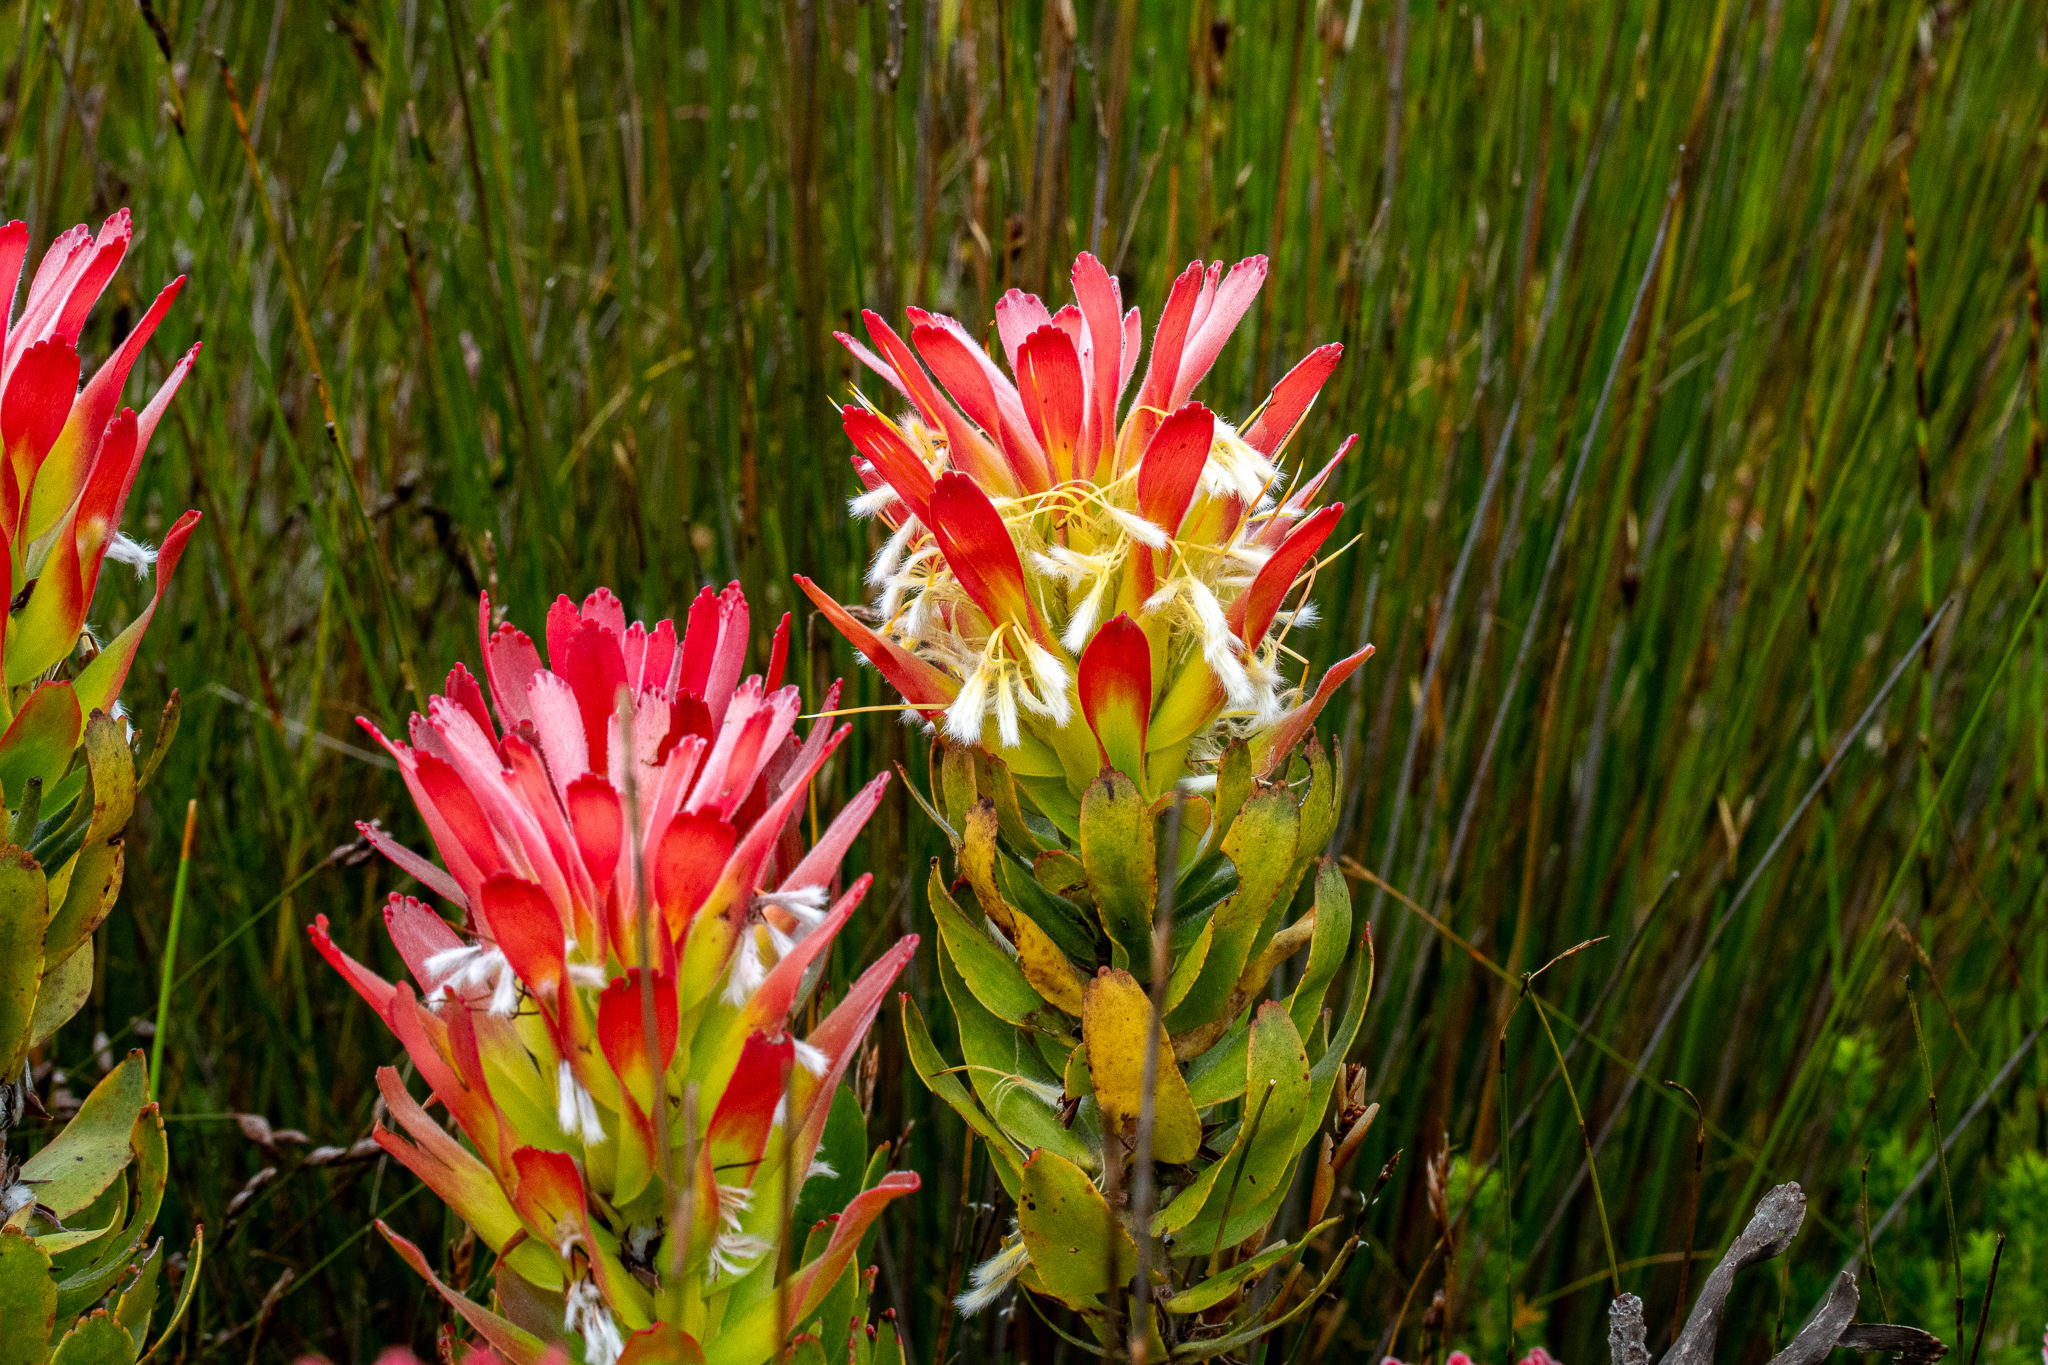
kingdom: Plantae
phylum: Tracheophyta
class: Magnoliopsida
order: Proteales
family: Proteaceae
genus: Mimetes
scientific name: Mimetes cucullatus
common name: Common pagoda
